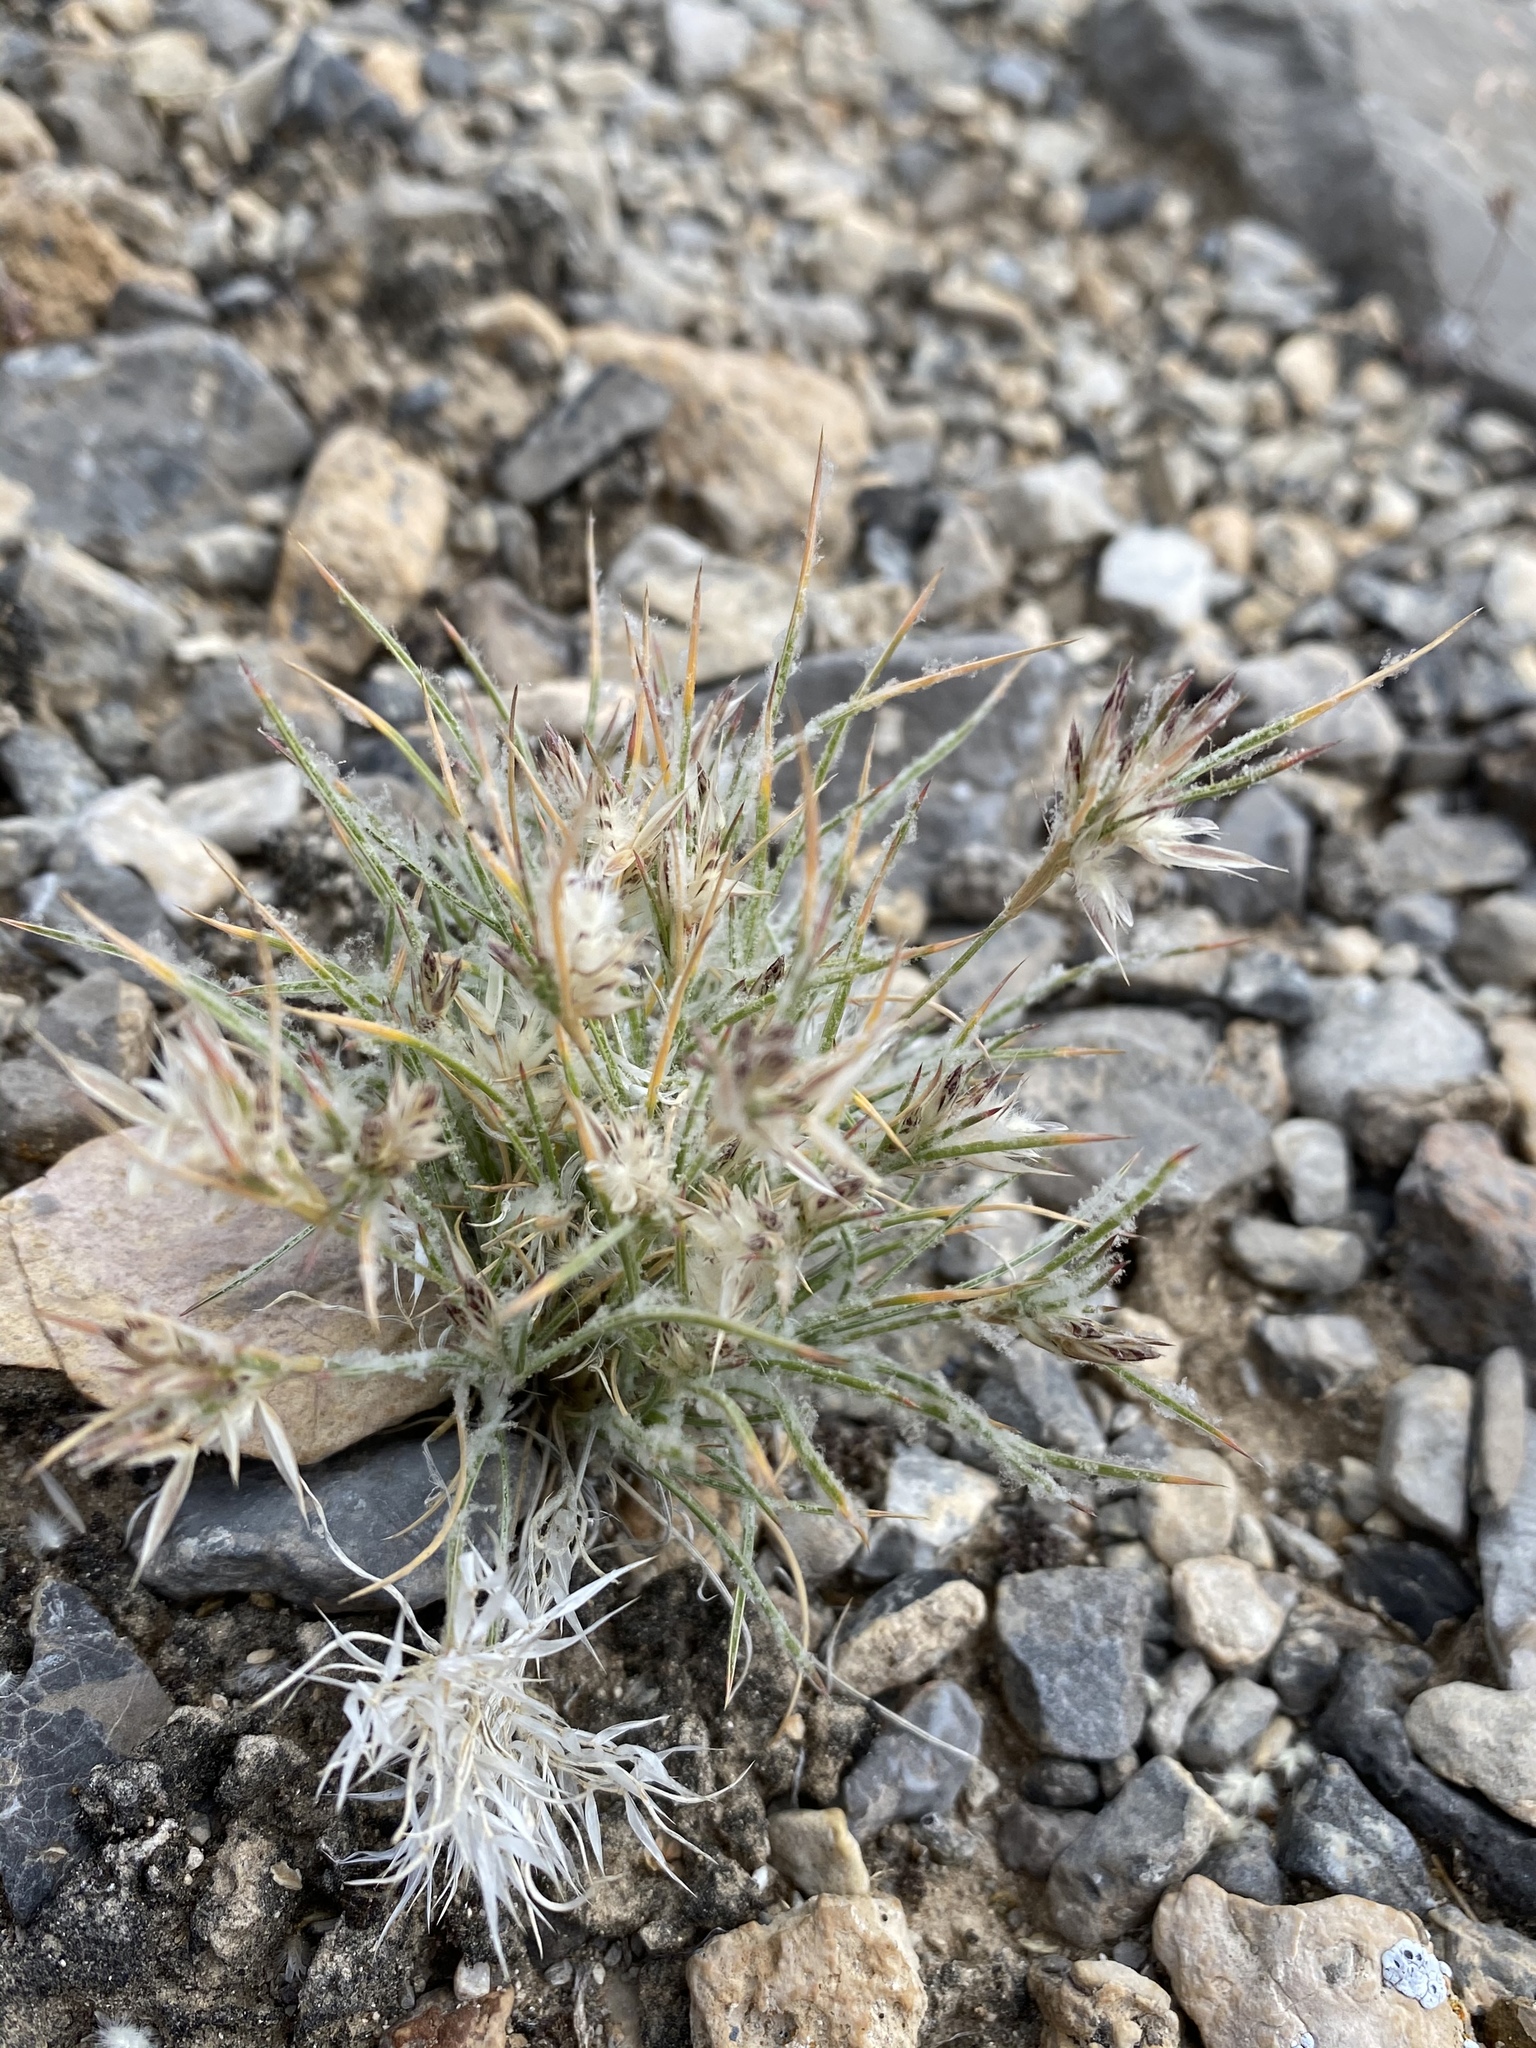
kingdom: Plantae
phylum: Tracheophyta
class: Liliopsida
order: Poales
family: Poaceae
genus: Dasyochloa
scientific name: Dasyochloa pulchella
